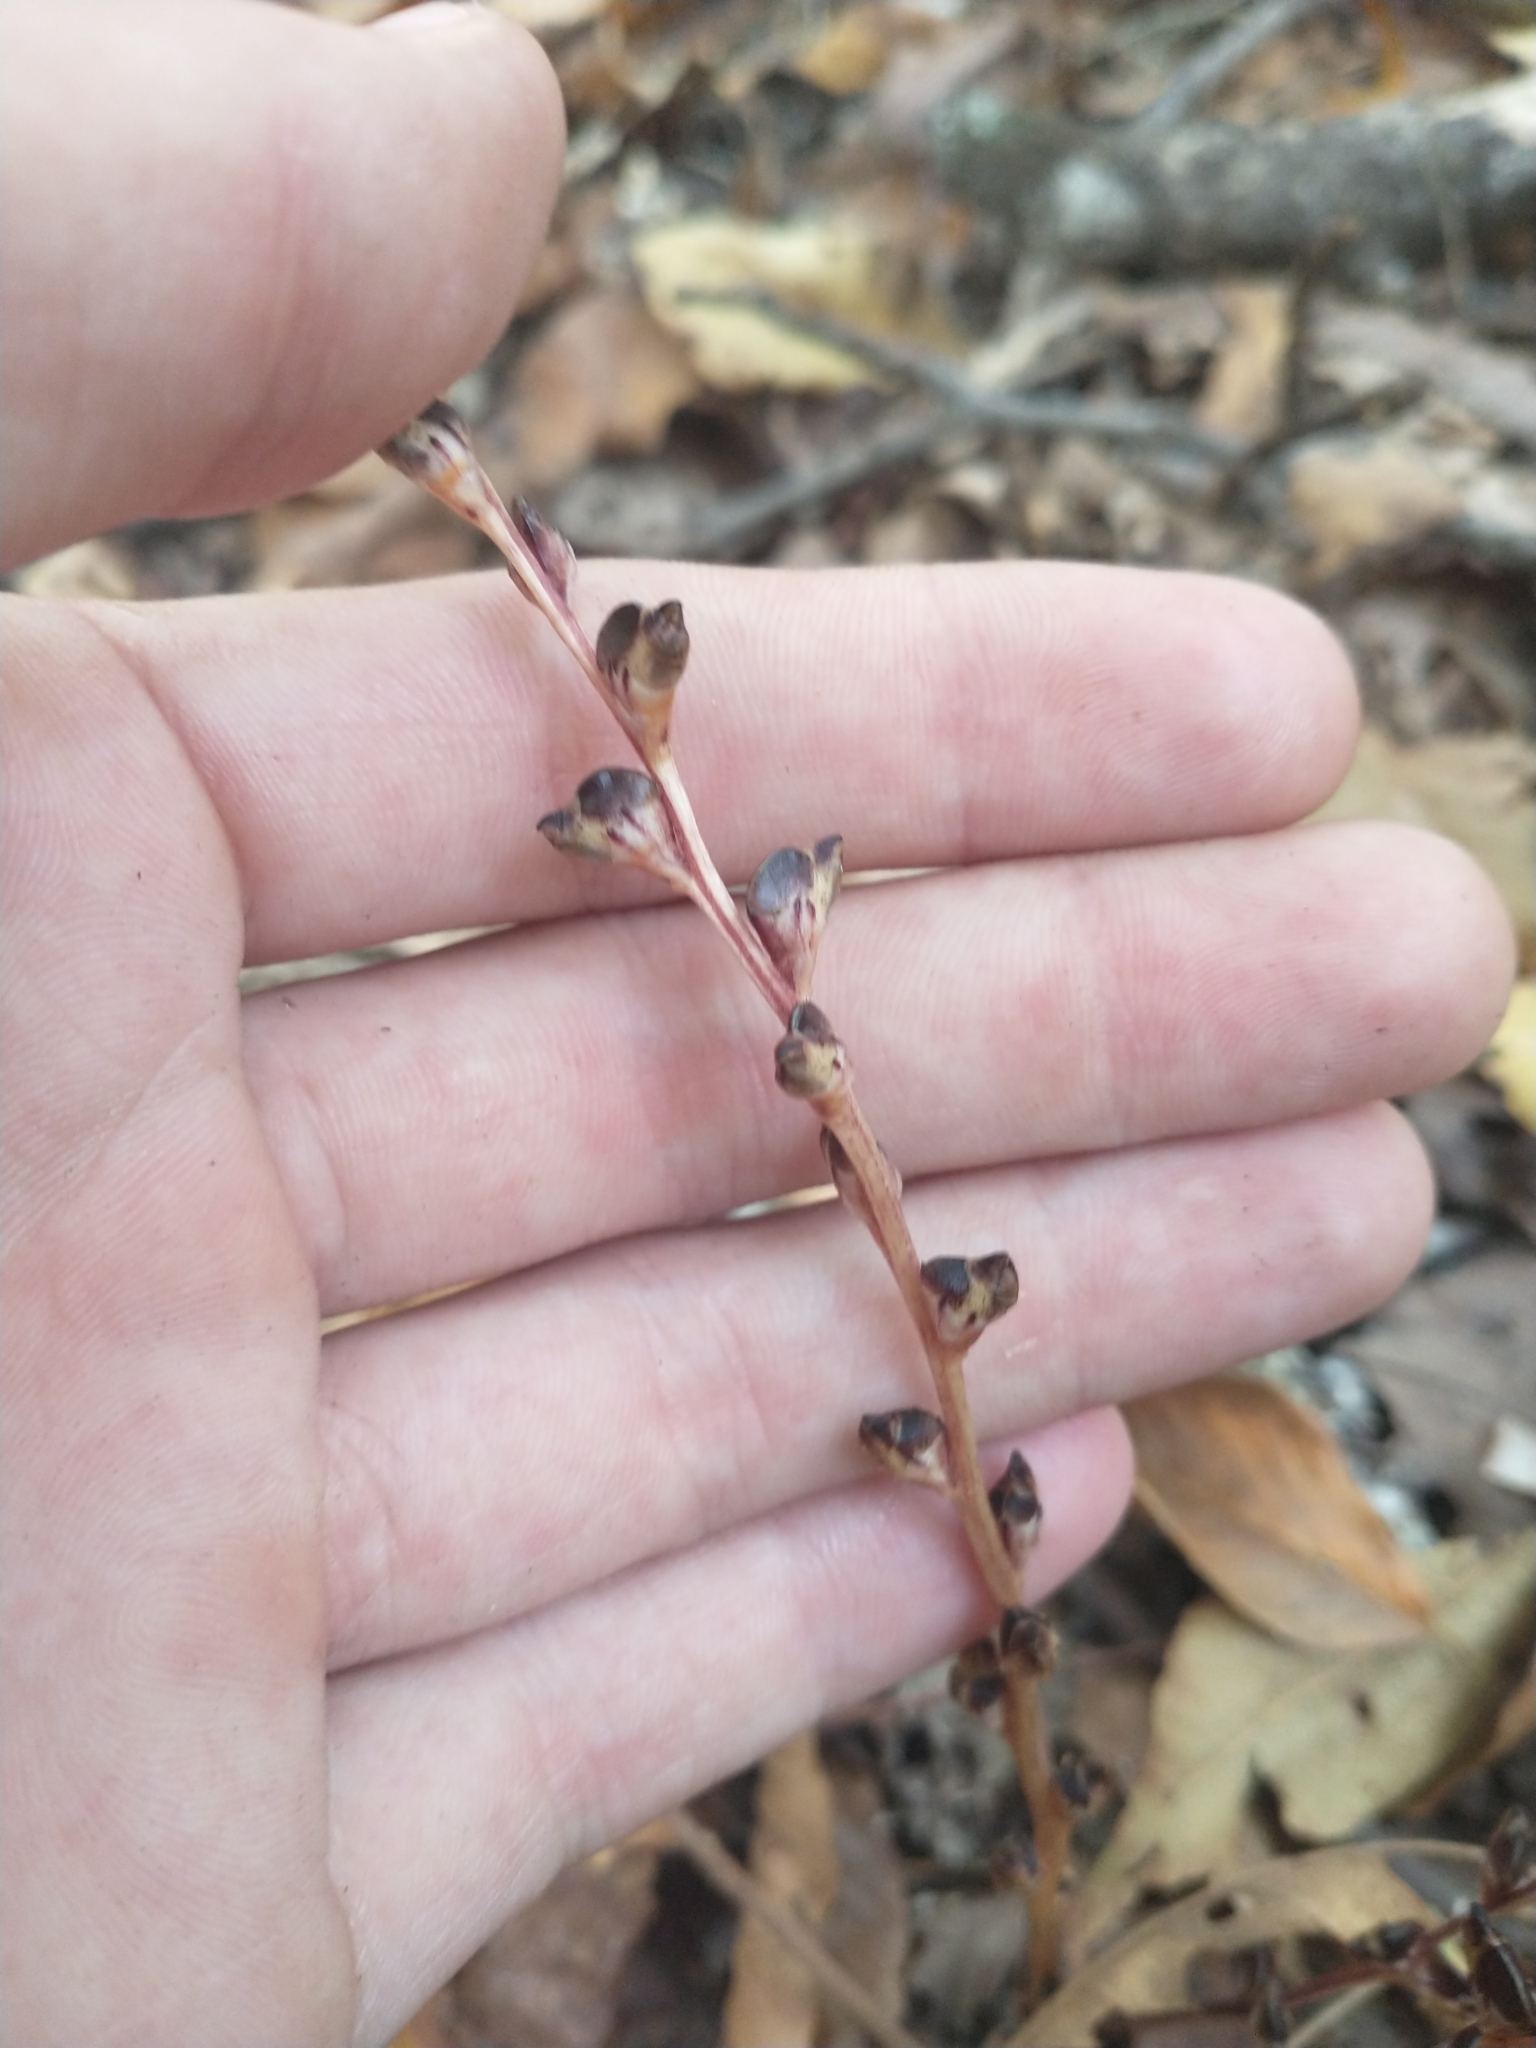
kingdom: Plantae
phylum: Tracheophyta
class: Magnoliopsida
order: Lamiales
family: Orobanchaceae
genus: Epifagus
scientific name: Epifagus virginiana
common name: Beechdrops
